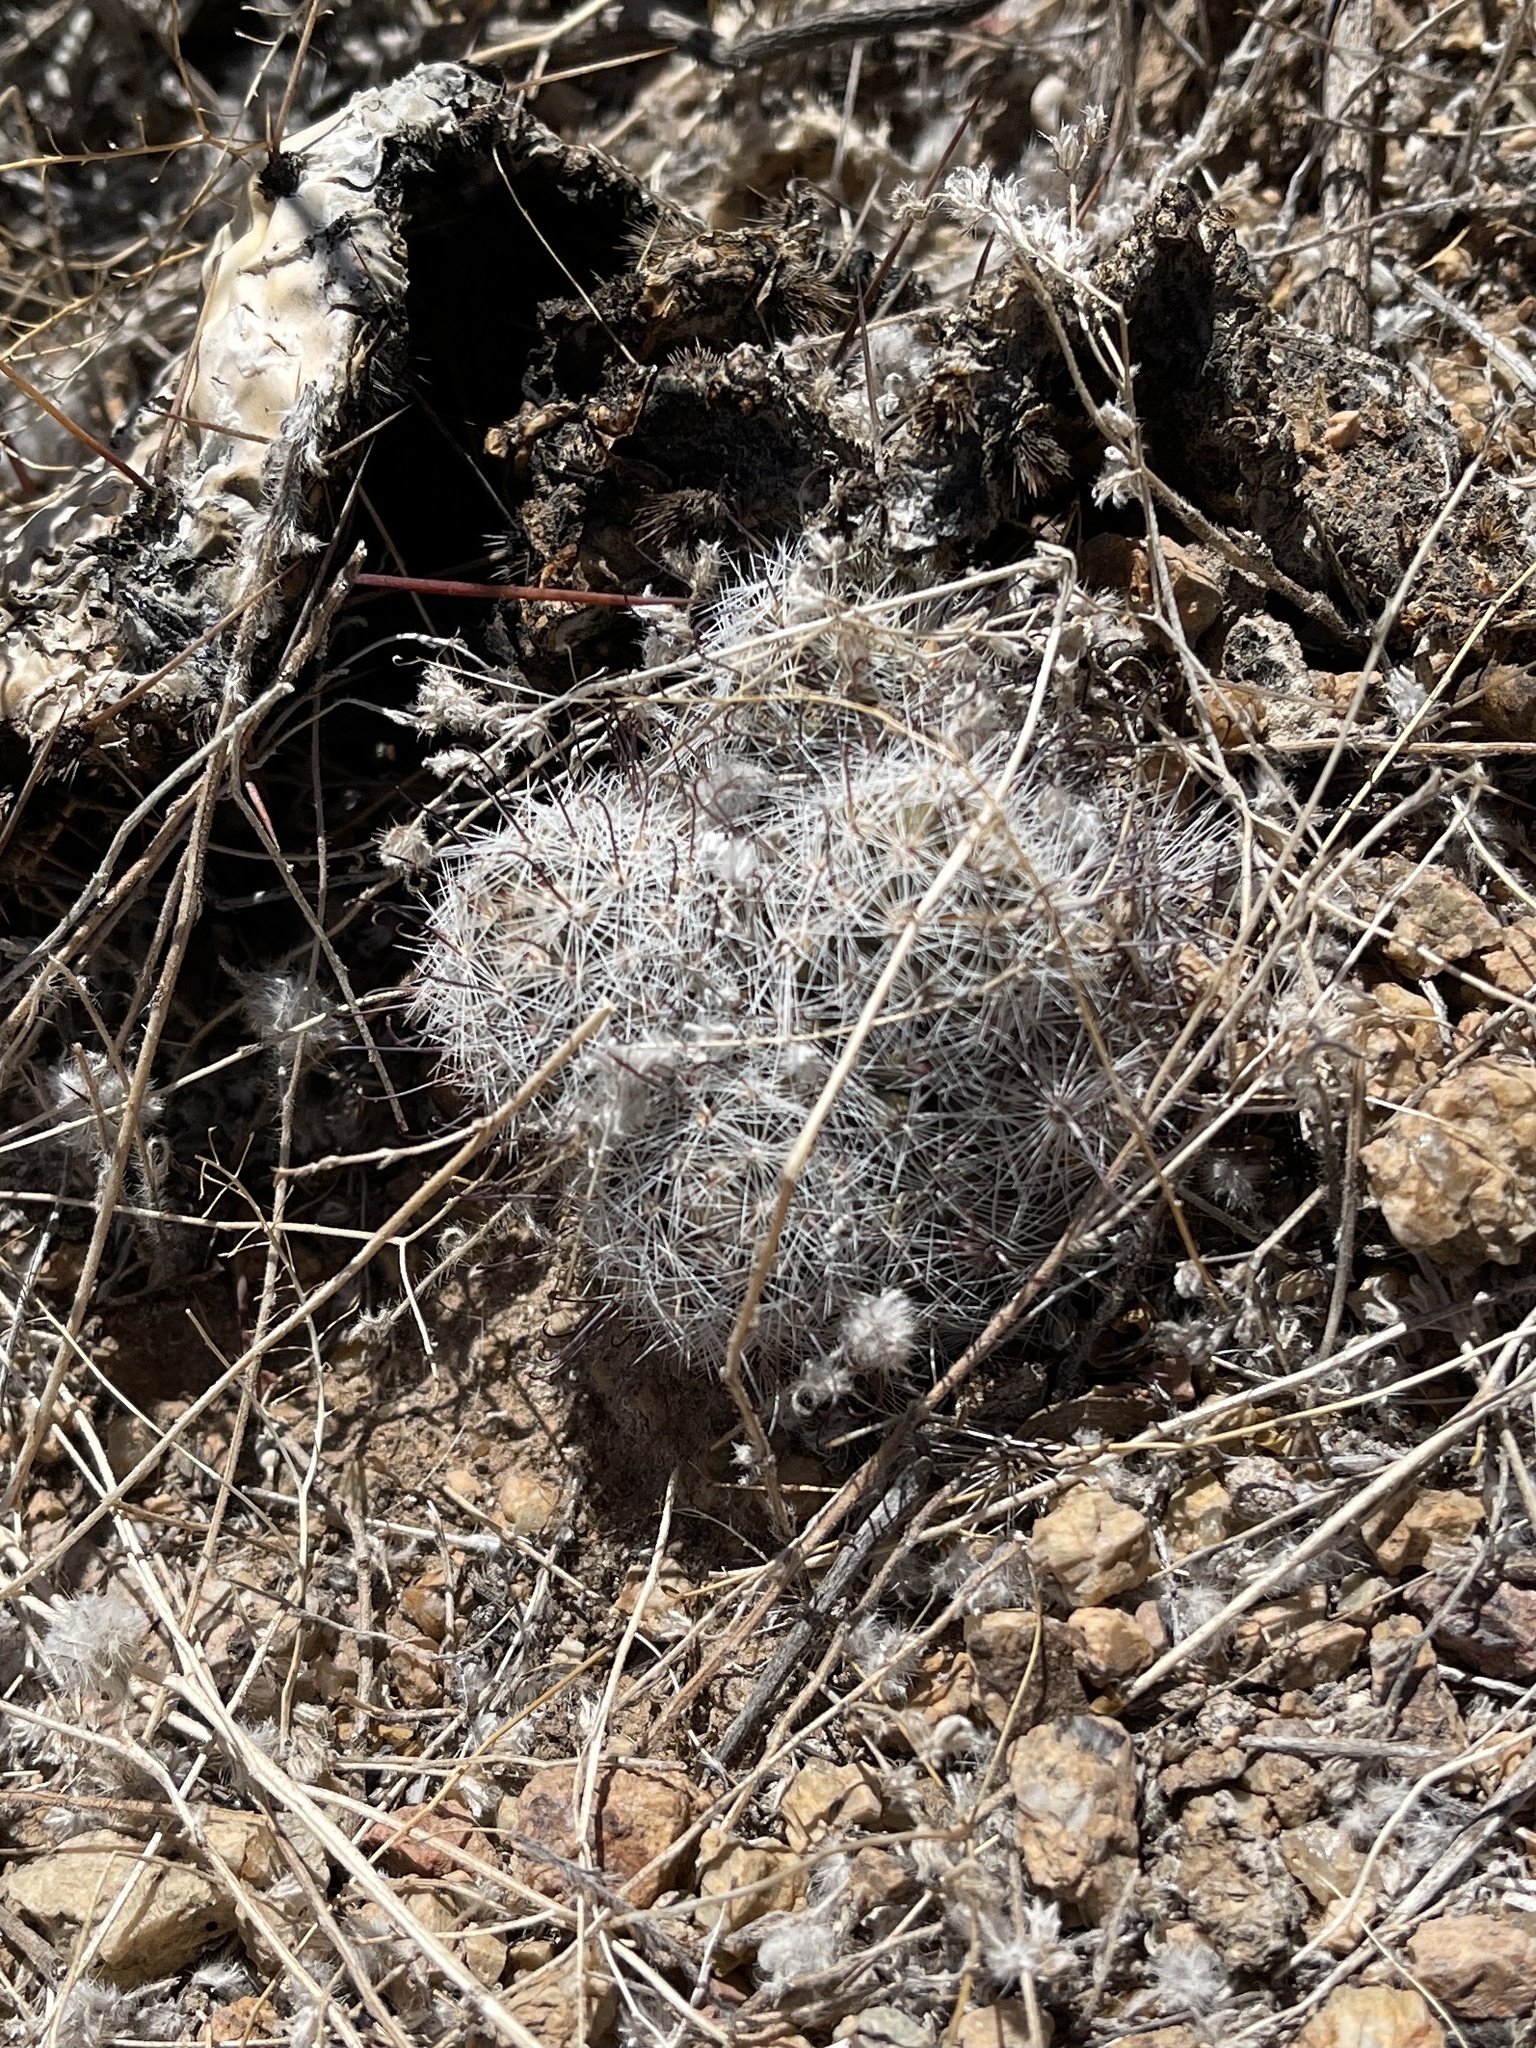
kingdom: Plantae
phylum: Tracheophyta
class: Magnoliopsida
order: Caryophyllales
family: Cactaceae
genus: Cochemiea
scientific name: Cochemiea grahamii
